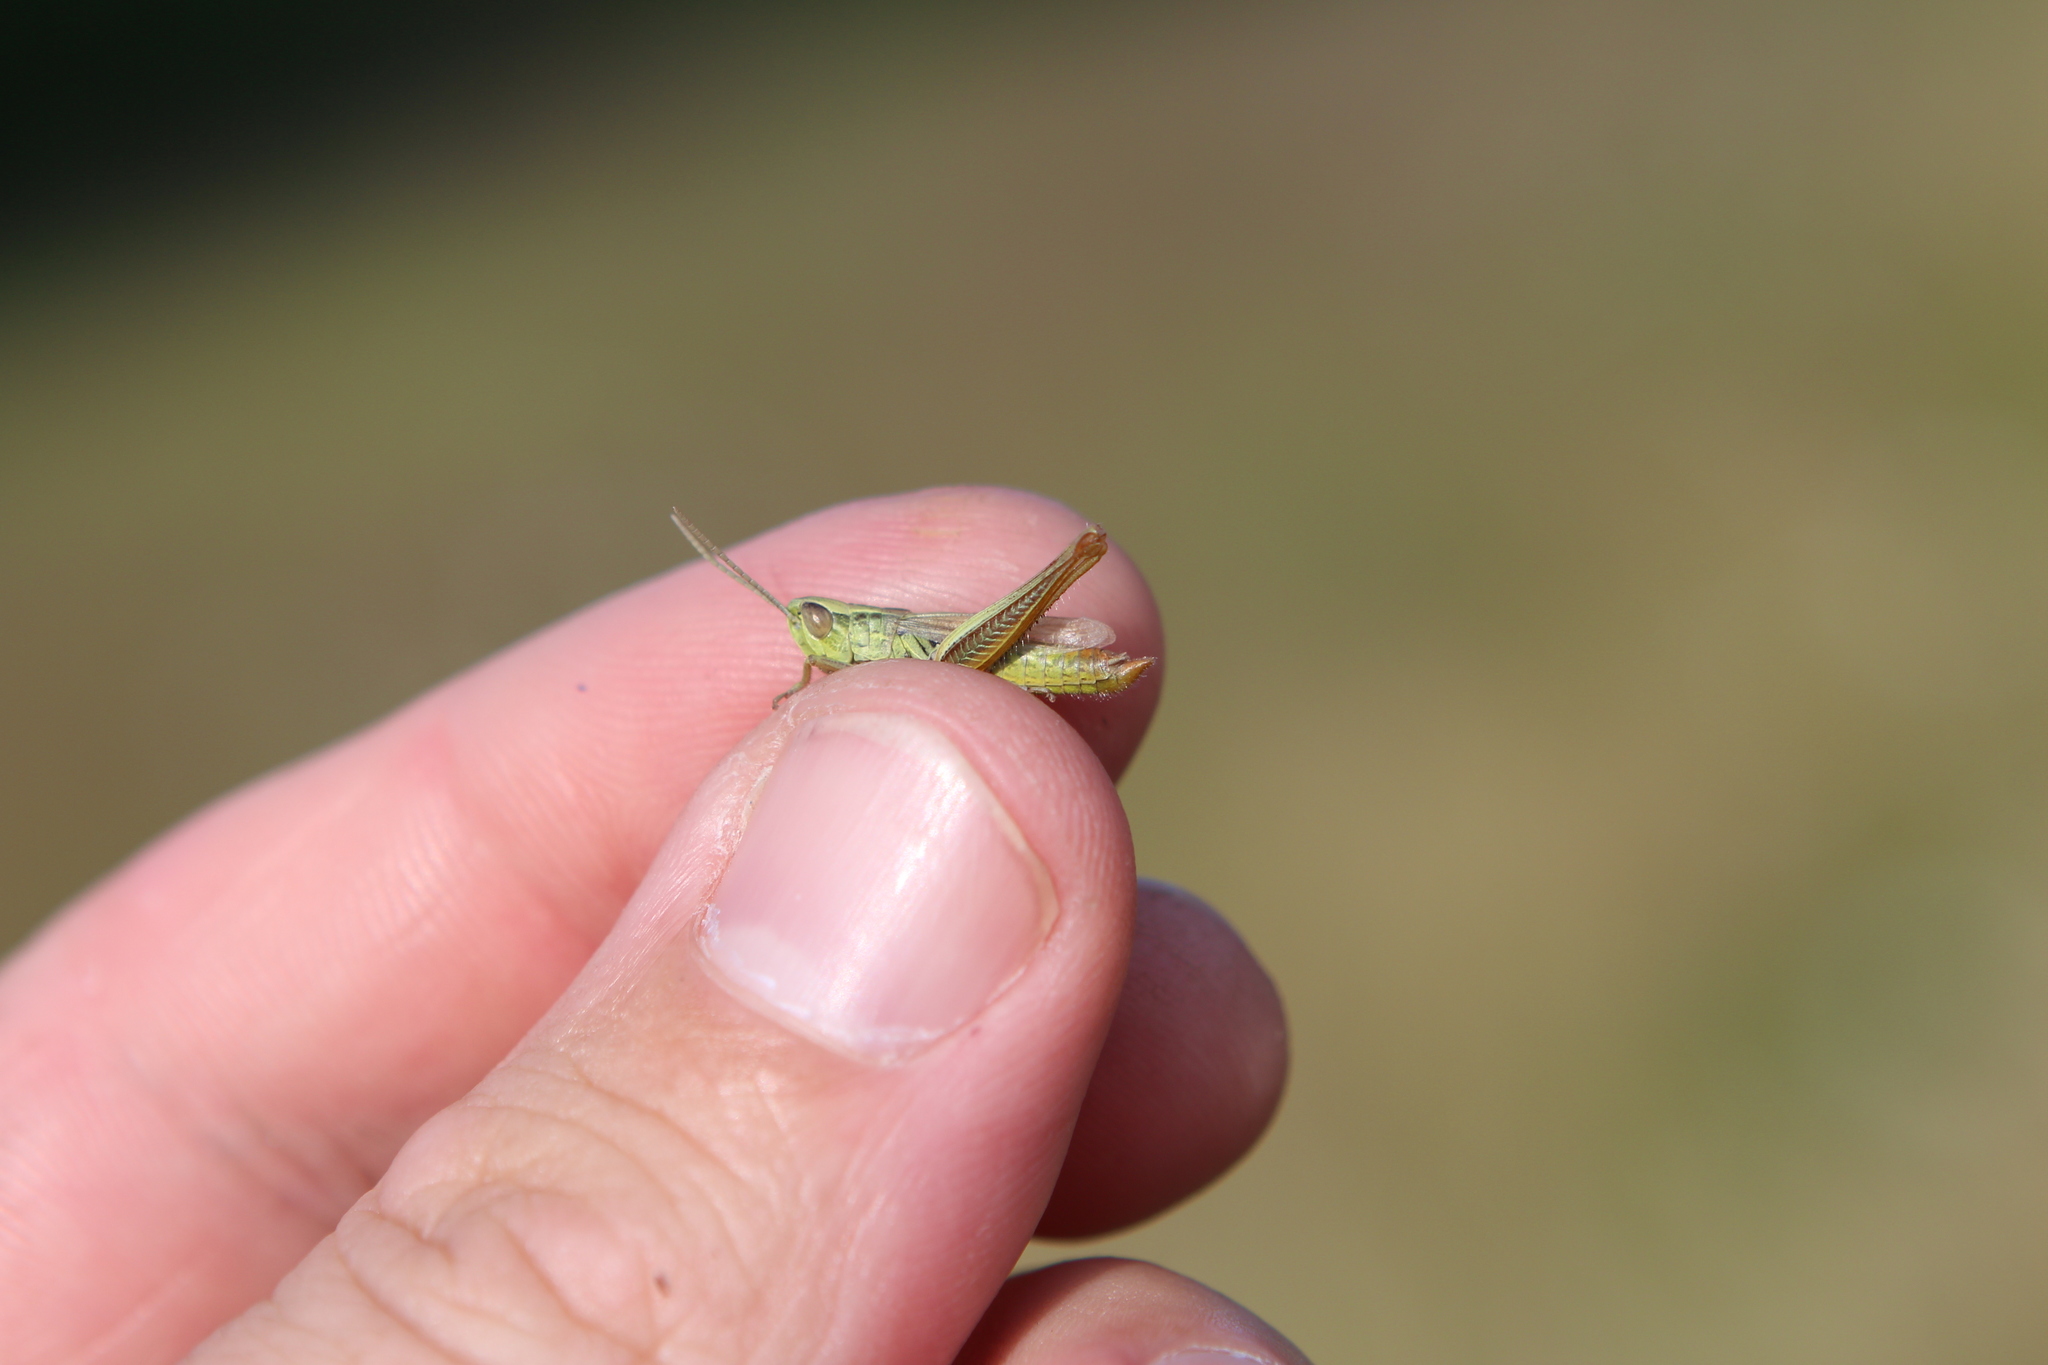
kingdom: Animalia
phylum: Arthropoda
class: Insecta
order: Orthoptera
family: Acrididae
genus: Euchorthippus
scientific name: Euchorthippus declivus
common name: Common straw grasshopper
